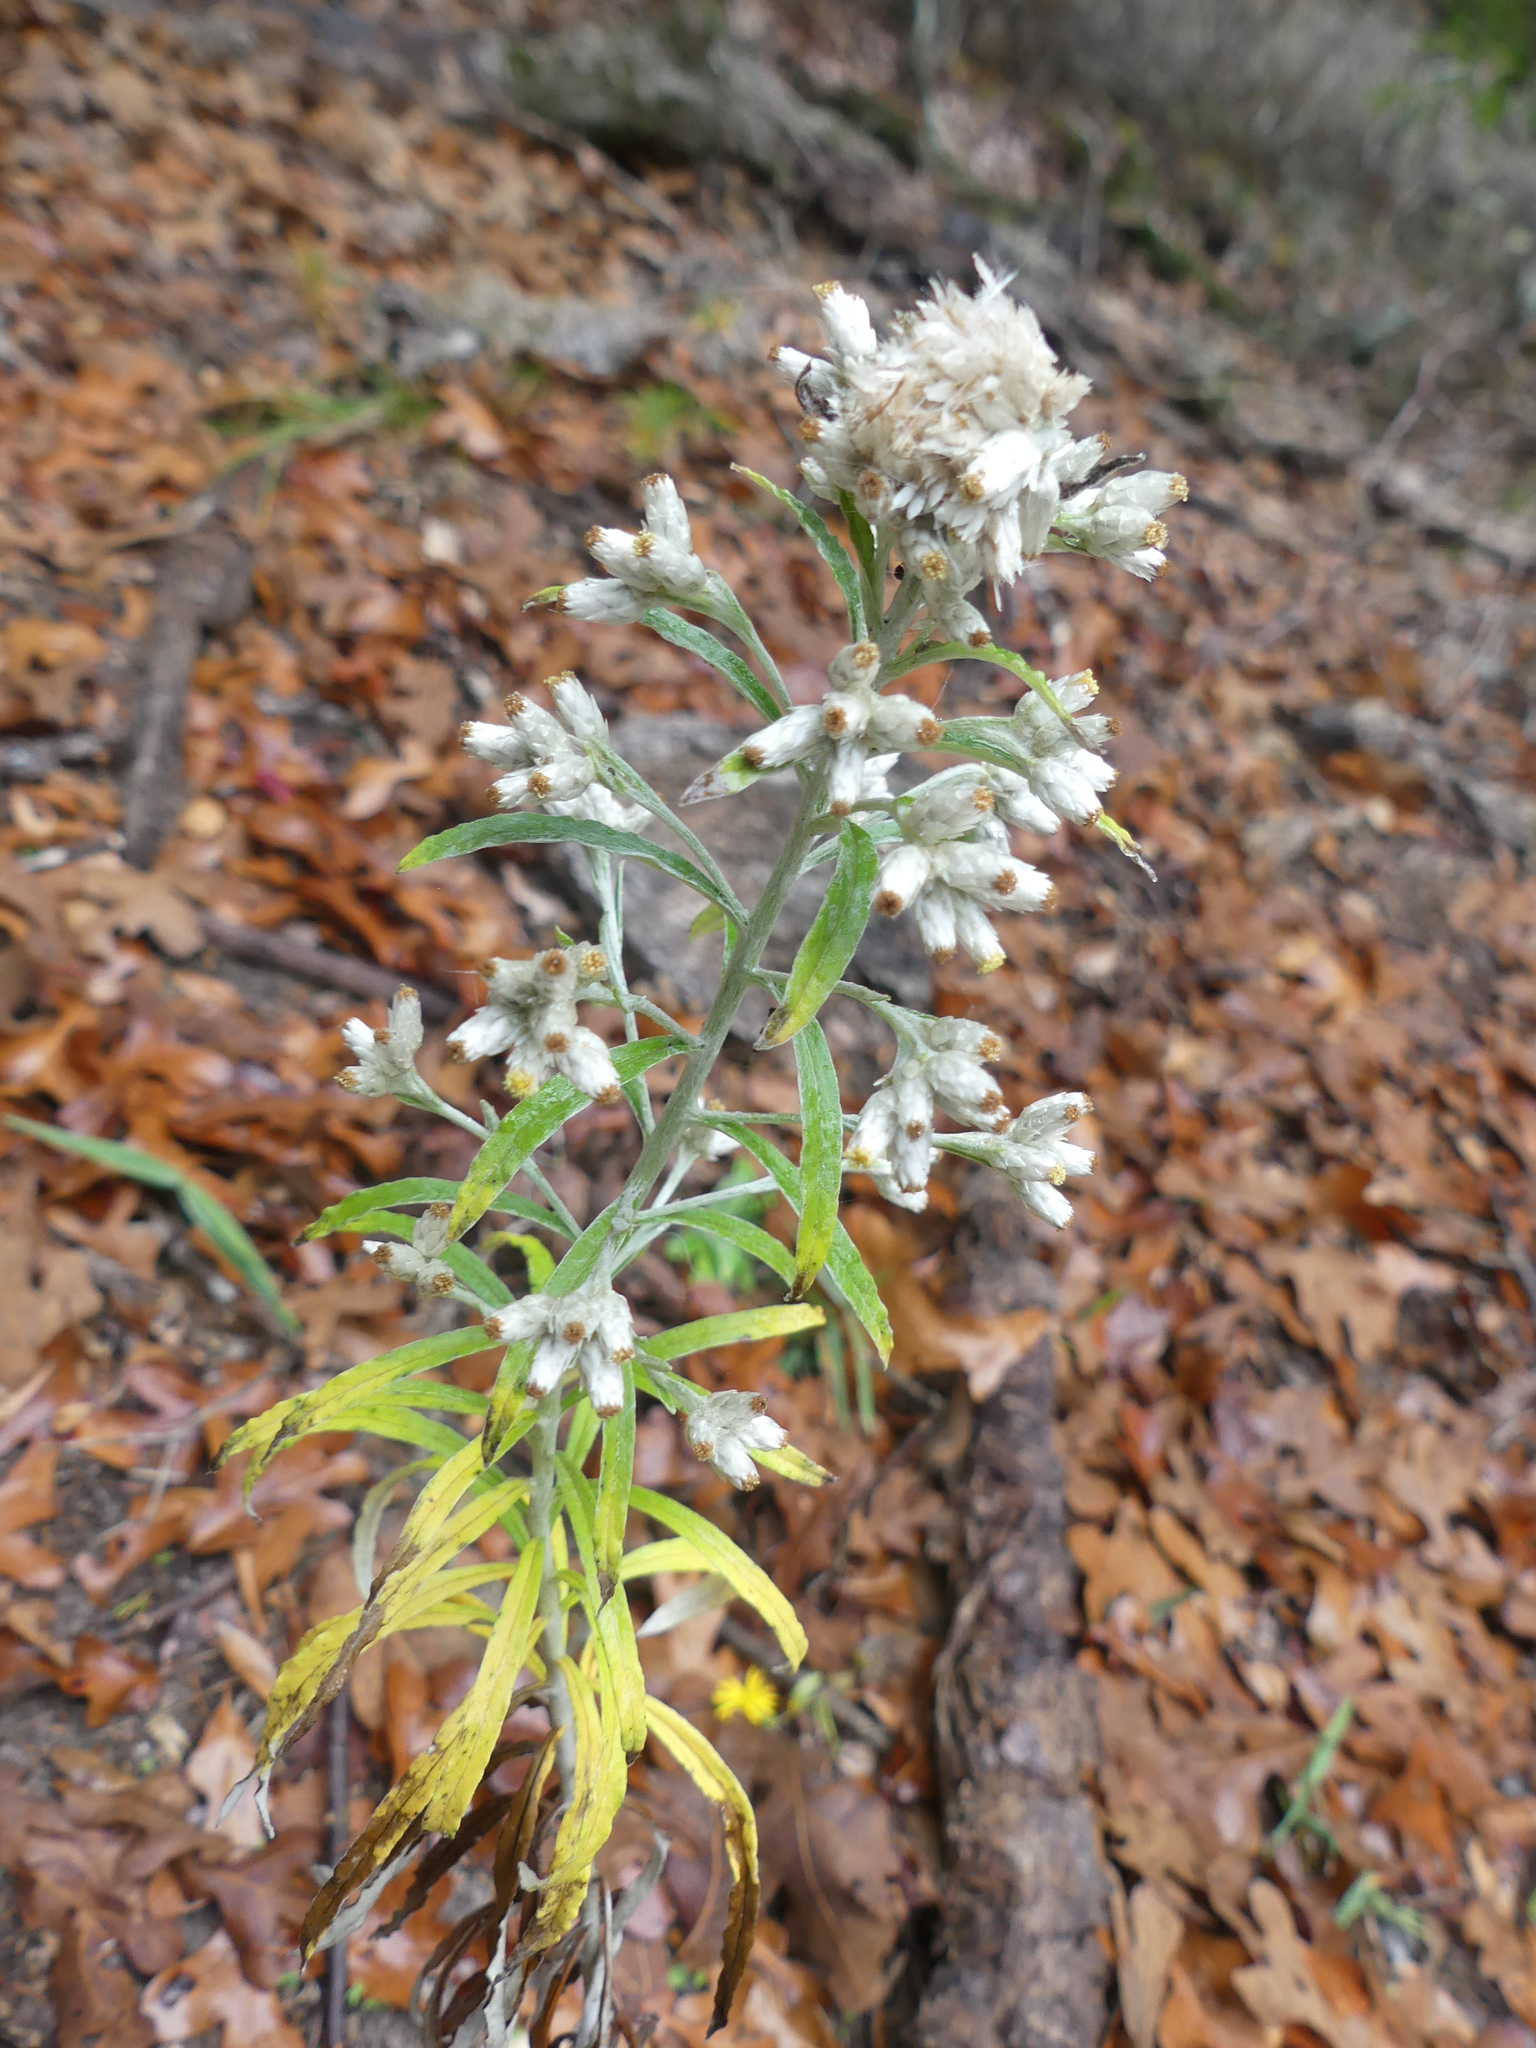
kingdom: Plantae
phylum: Tracheophyta
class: Magnoliopsida
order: Asterales
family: Asteraceae
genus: Pseudognaphalium
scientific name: Pseudognaphalium obtusifolium
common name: Eastern rabbit-tobacco
